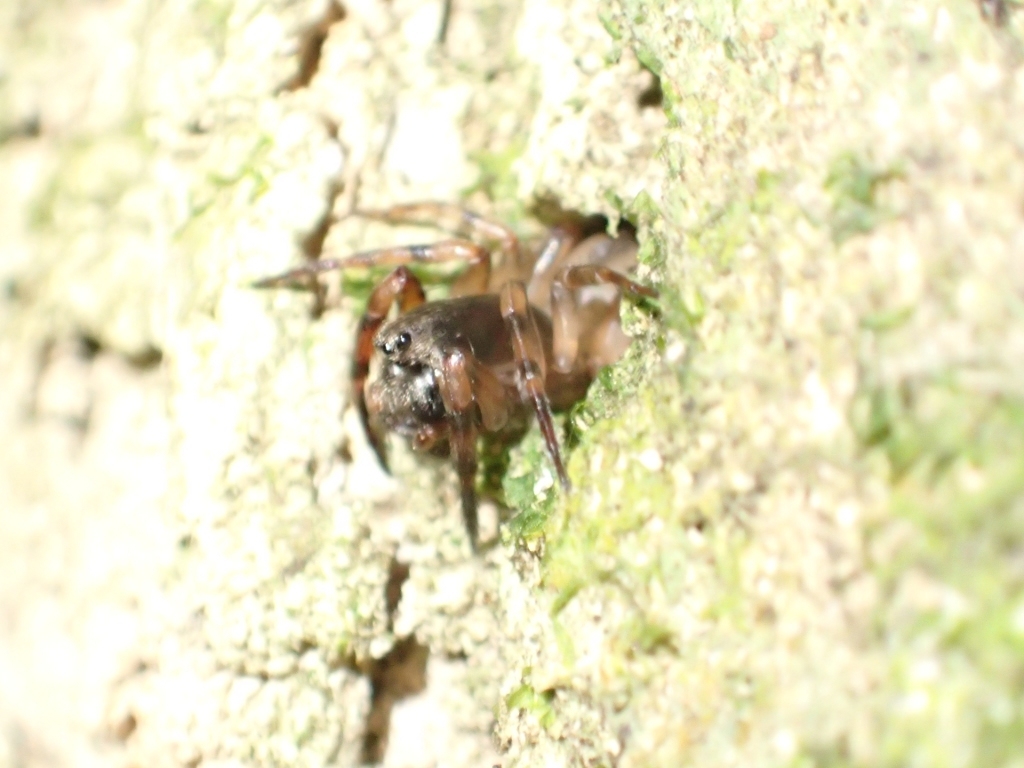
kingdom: Animalia
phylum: Arthropoda
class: Arachnida
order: Araneae
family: Cycloctenidae
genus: Plectophanes
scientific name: Plectophanes
